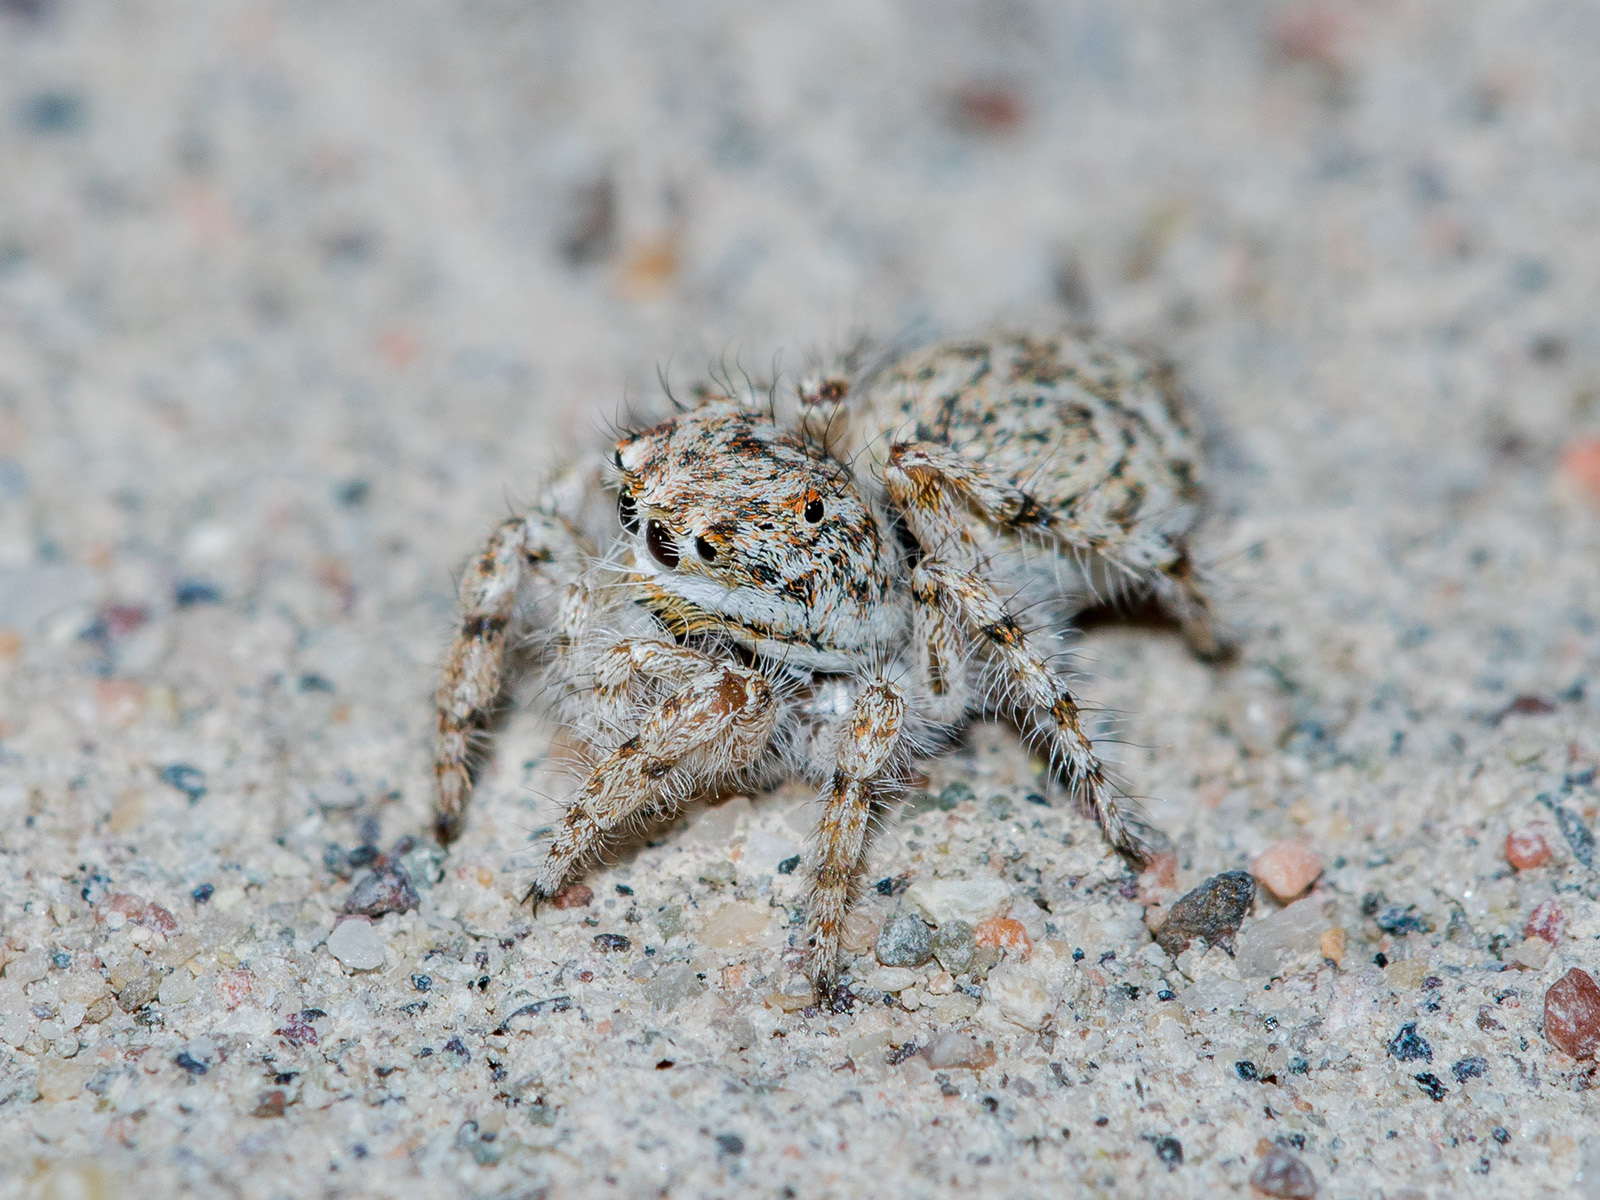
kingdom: Animalia
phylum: Arthropoda
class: Arachnida
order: Araneae
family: Salticidae
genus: Yllenus
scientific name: Yllenus uiguricus
